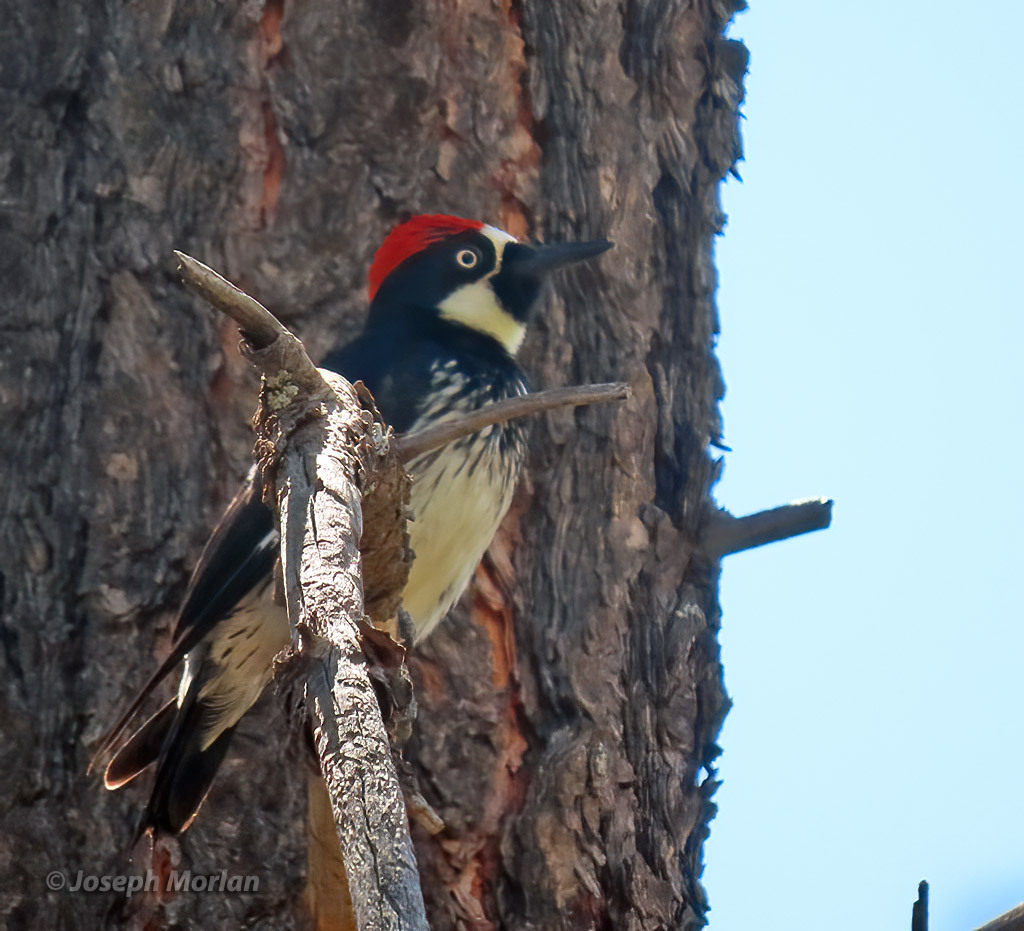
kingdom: Animalia
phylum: Chordata
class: Aves
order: Piciformes
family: Picidae
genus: Melanerpes
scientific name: Melanerpes formicivorus
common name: Acorn woodpecker
